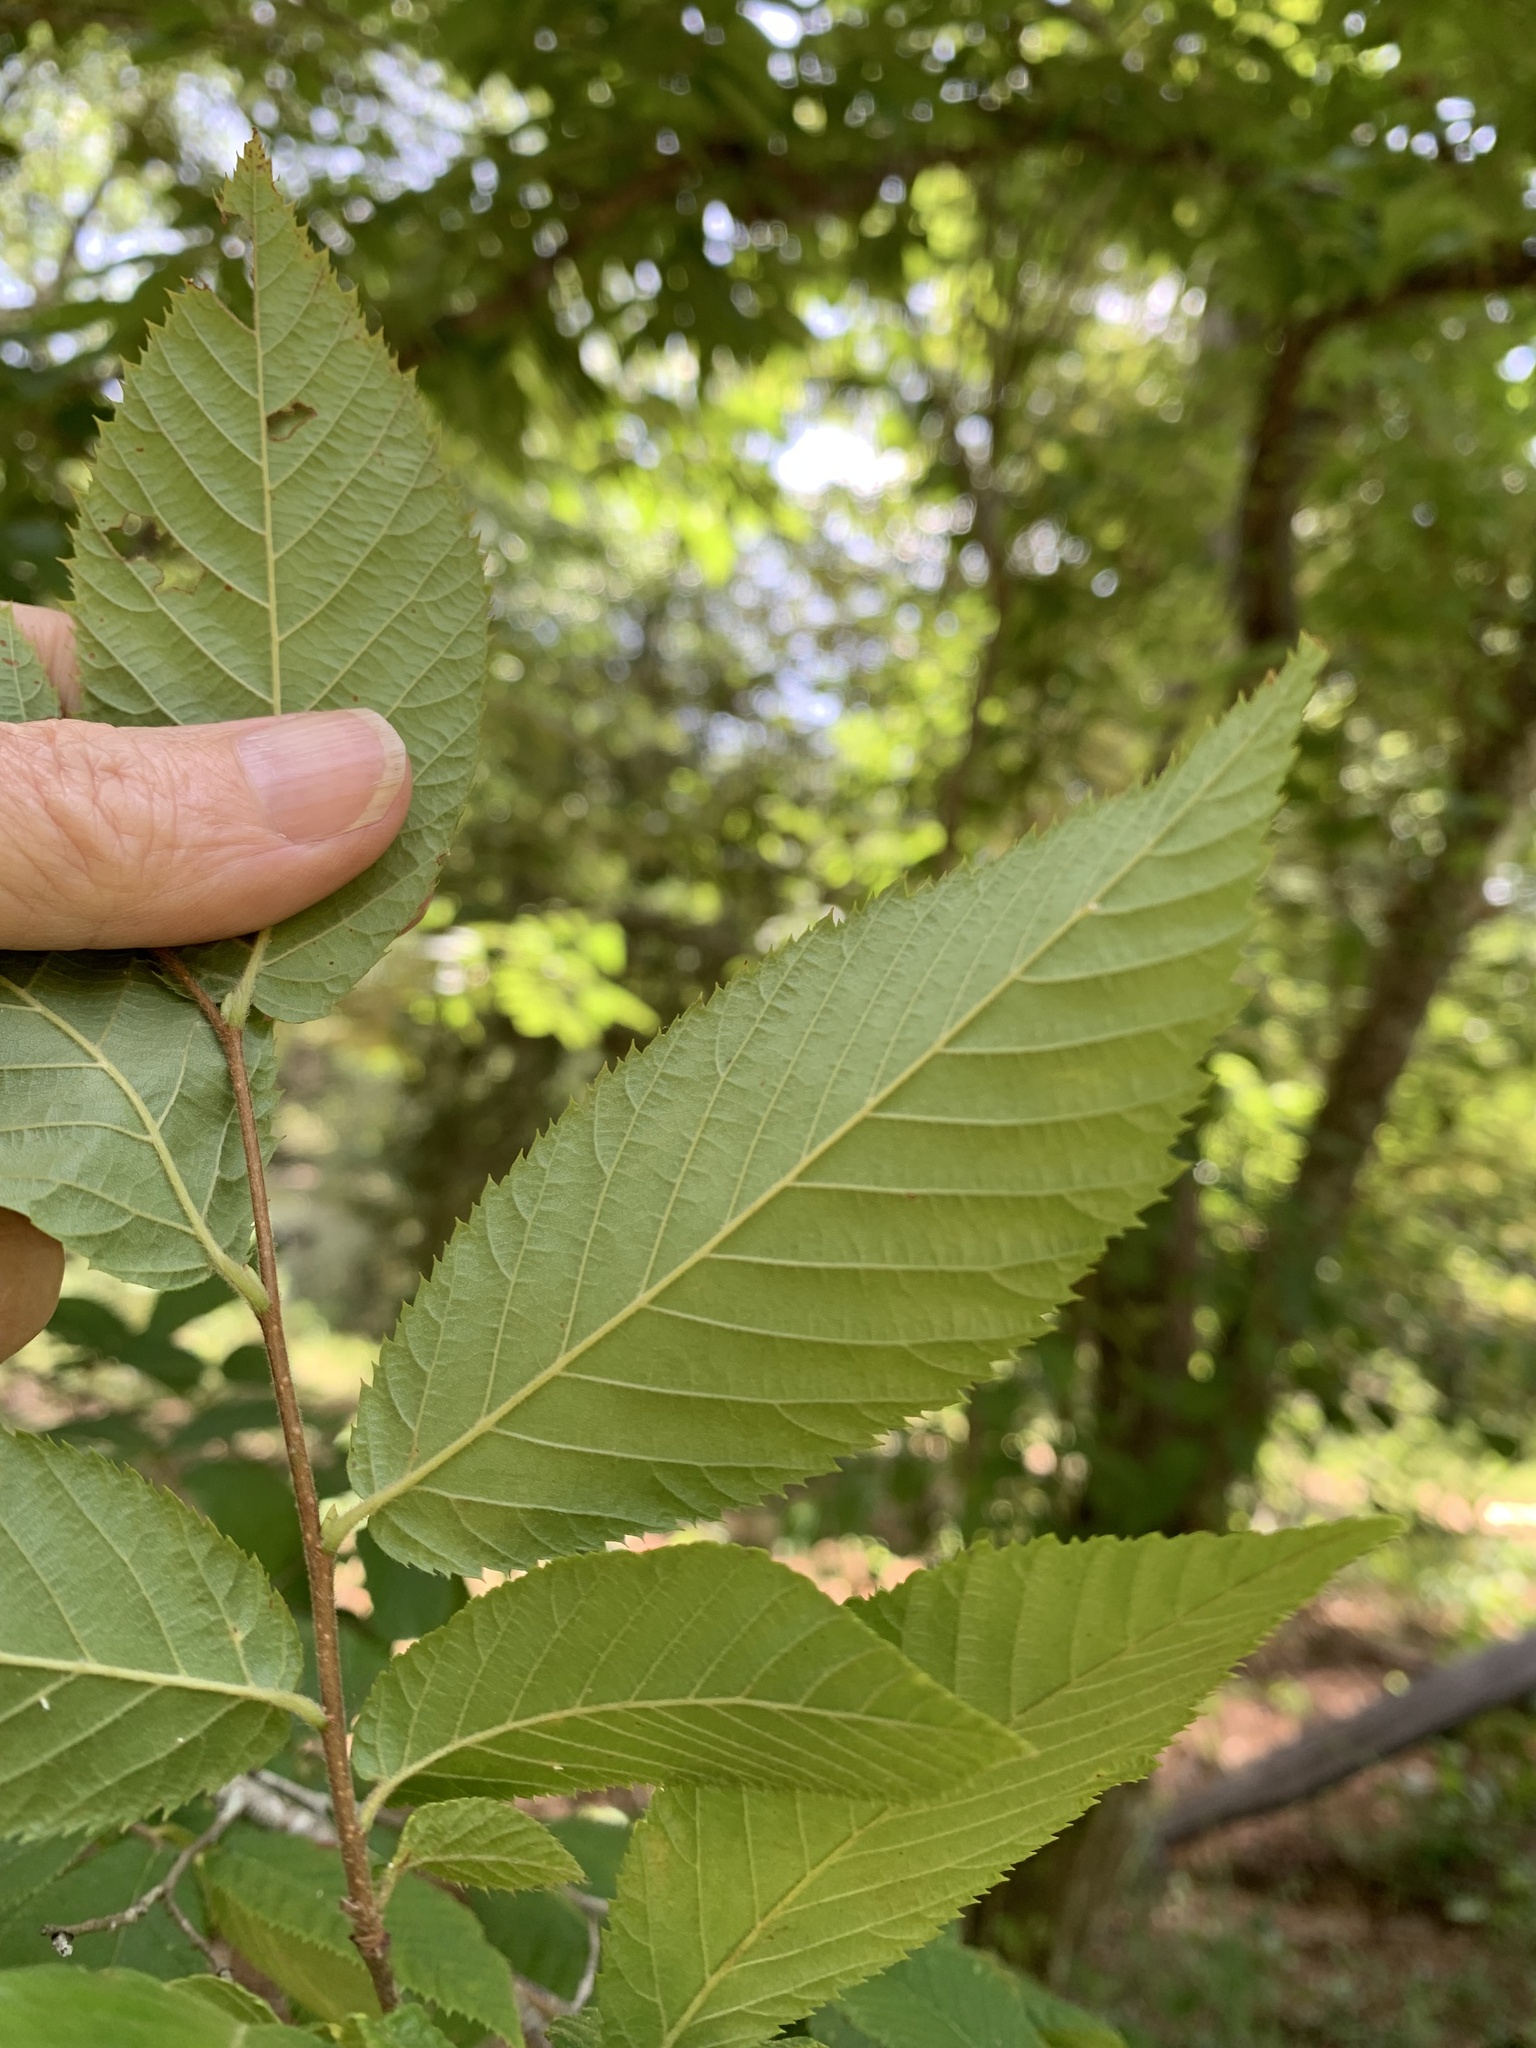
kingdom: Plantae
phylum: Tracheophyta
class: Magnoliopsida
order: Fagales
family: Betulaceae
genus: Ostrya
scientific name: Ostrya virginiana
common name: Ironwood
